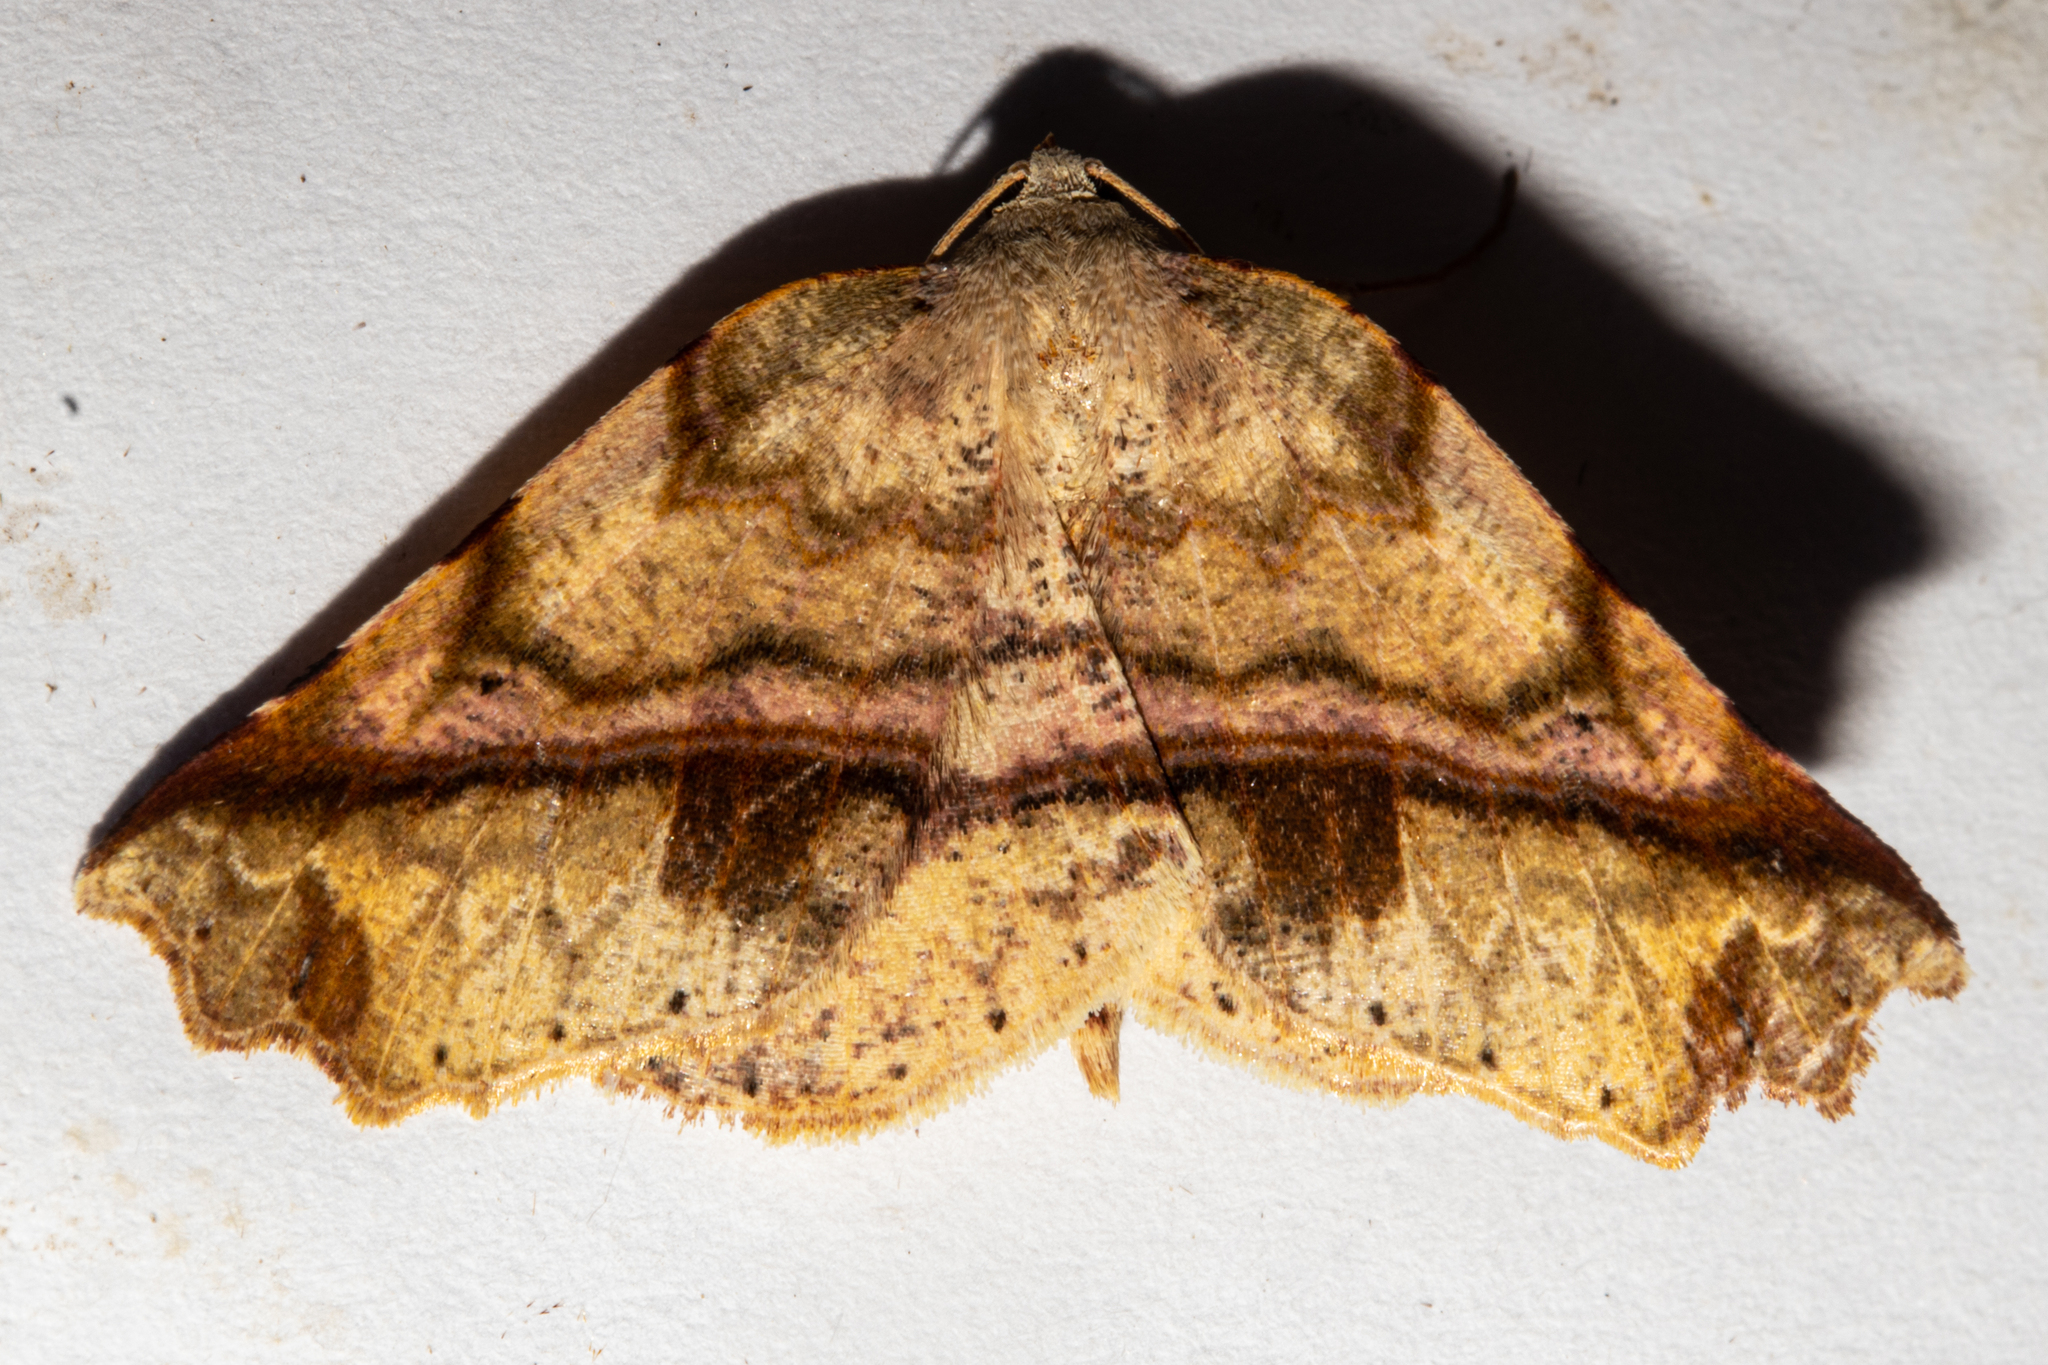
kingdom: Animalia
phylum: Arthropoda
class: Insecta
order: Lepidoptera
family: Geometridae
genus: Ischalis
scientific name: Ischalis gallaria
